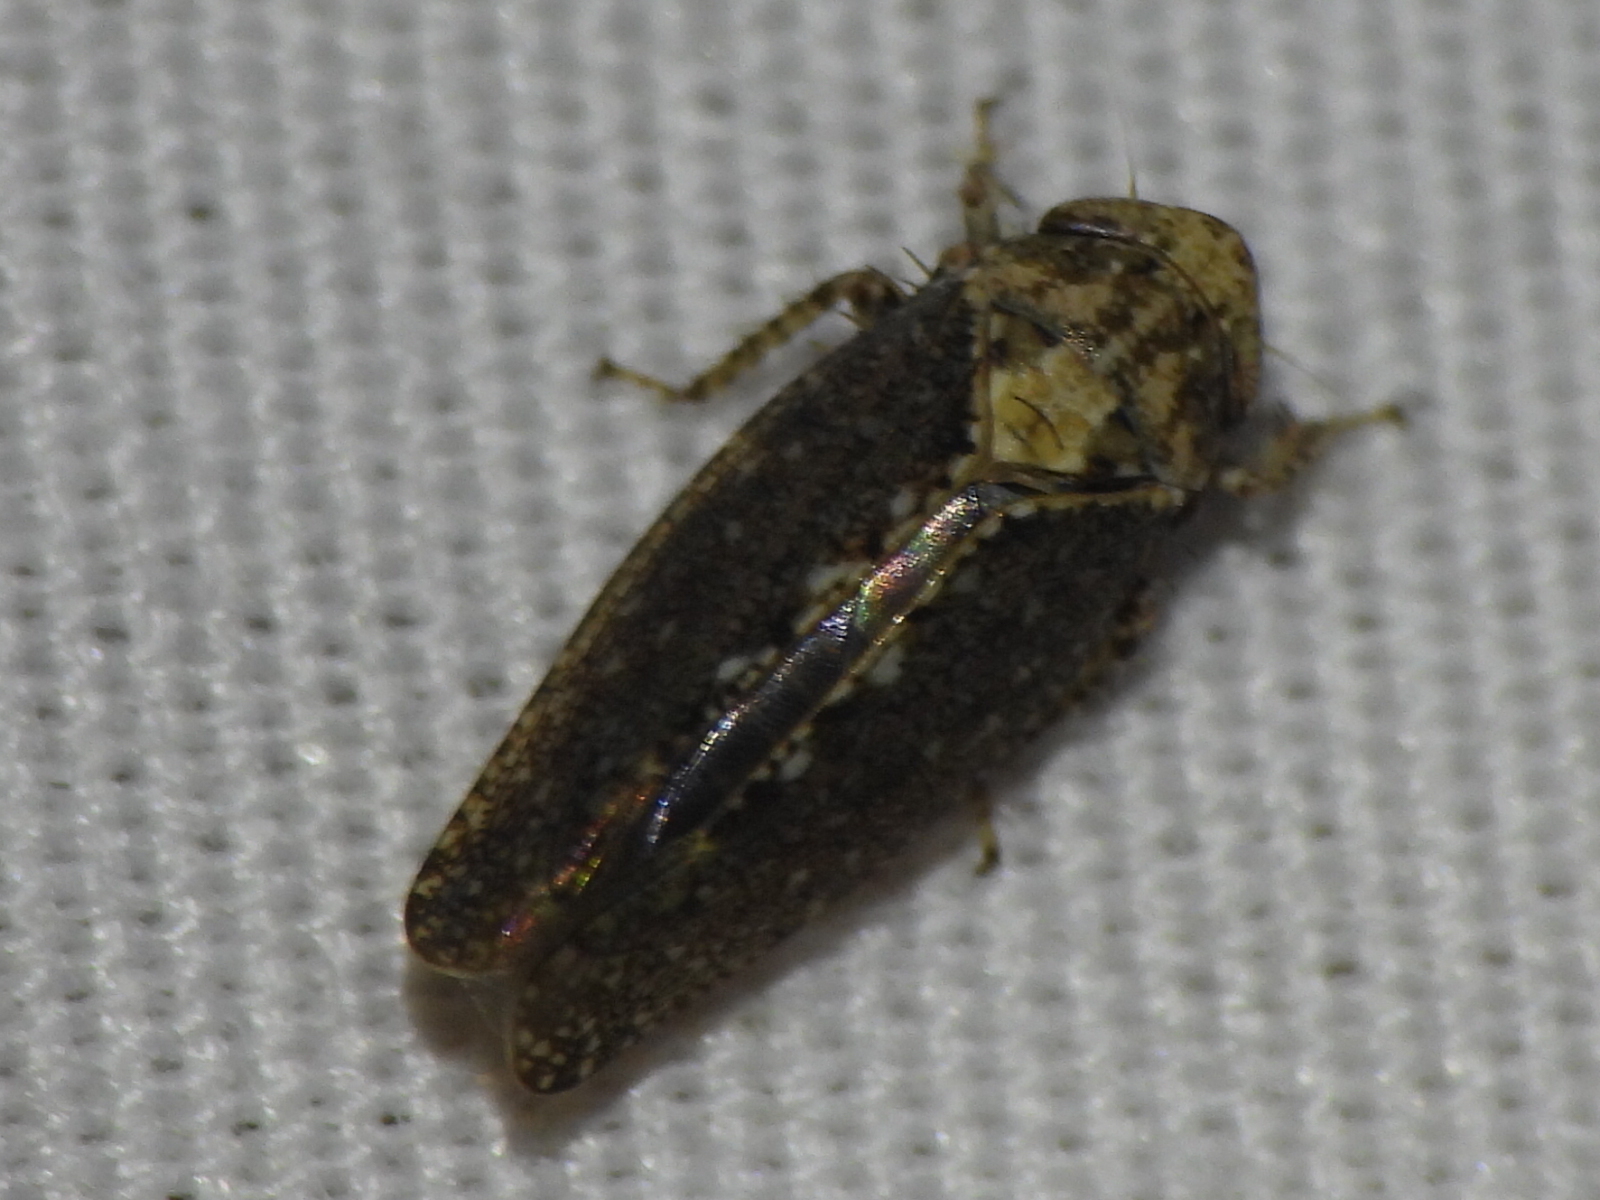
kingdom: Animalia
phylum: Arthropoda
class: Insecta
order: Hemiptera
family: Cicadellidae
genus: Excultanus
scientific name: Excultanus excultus
